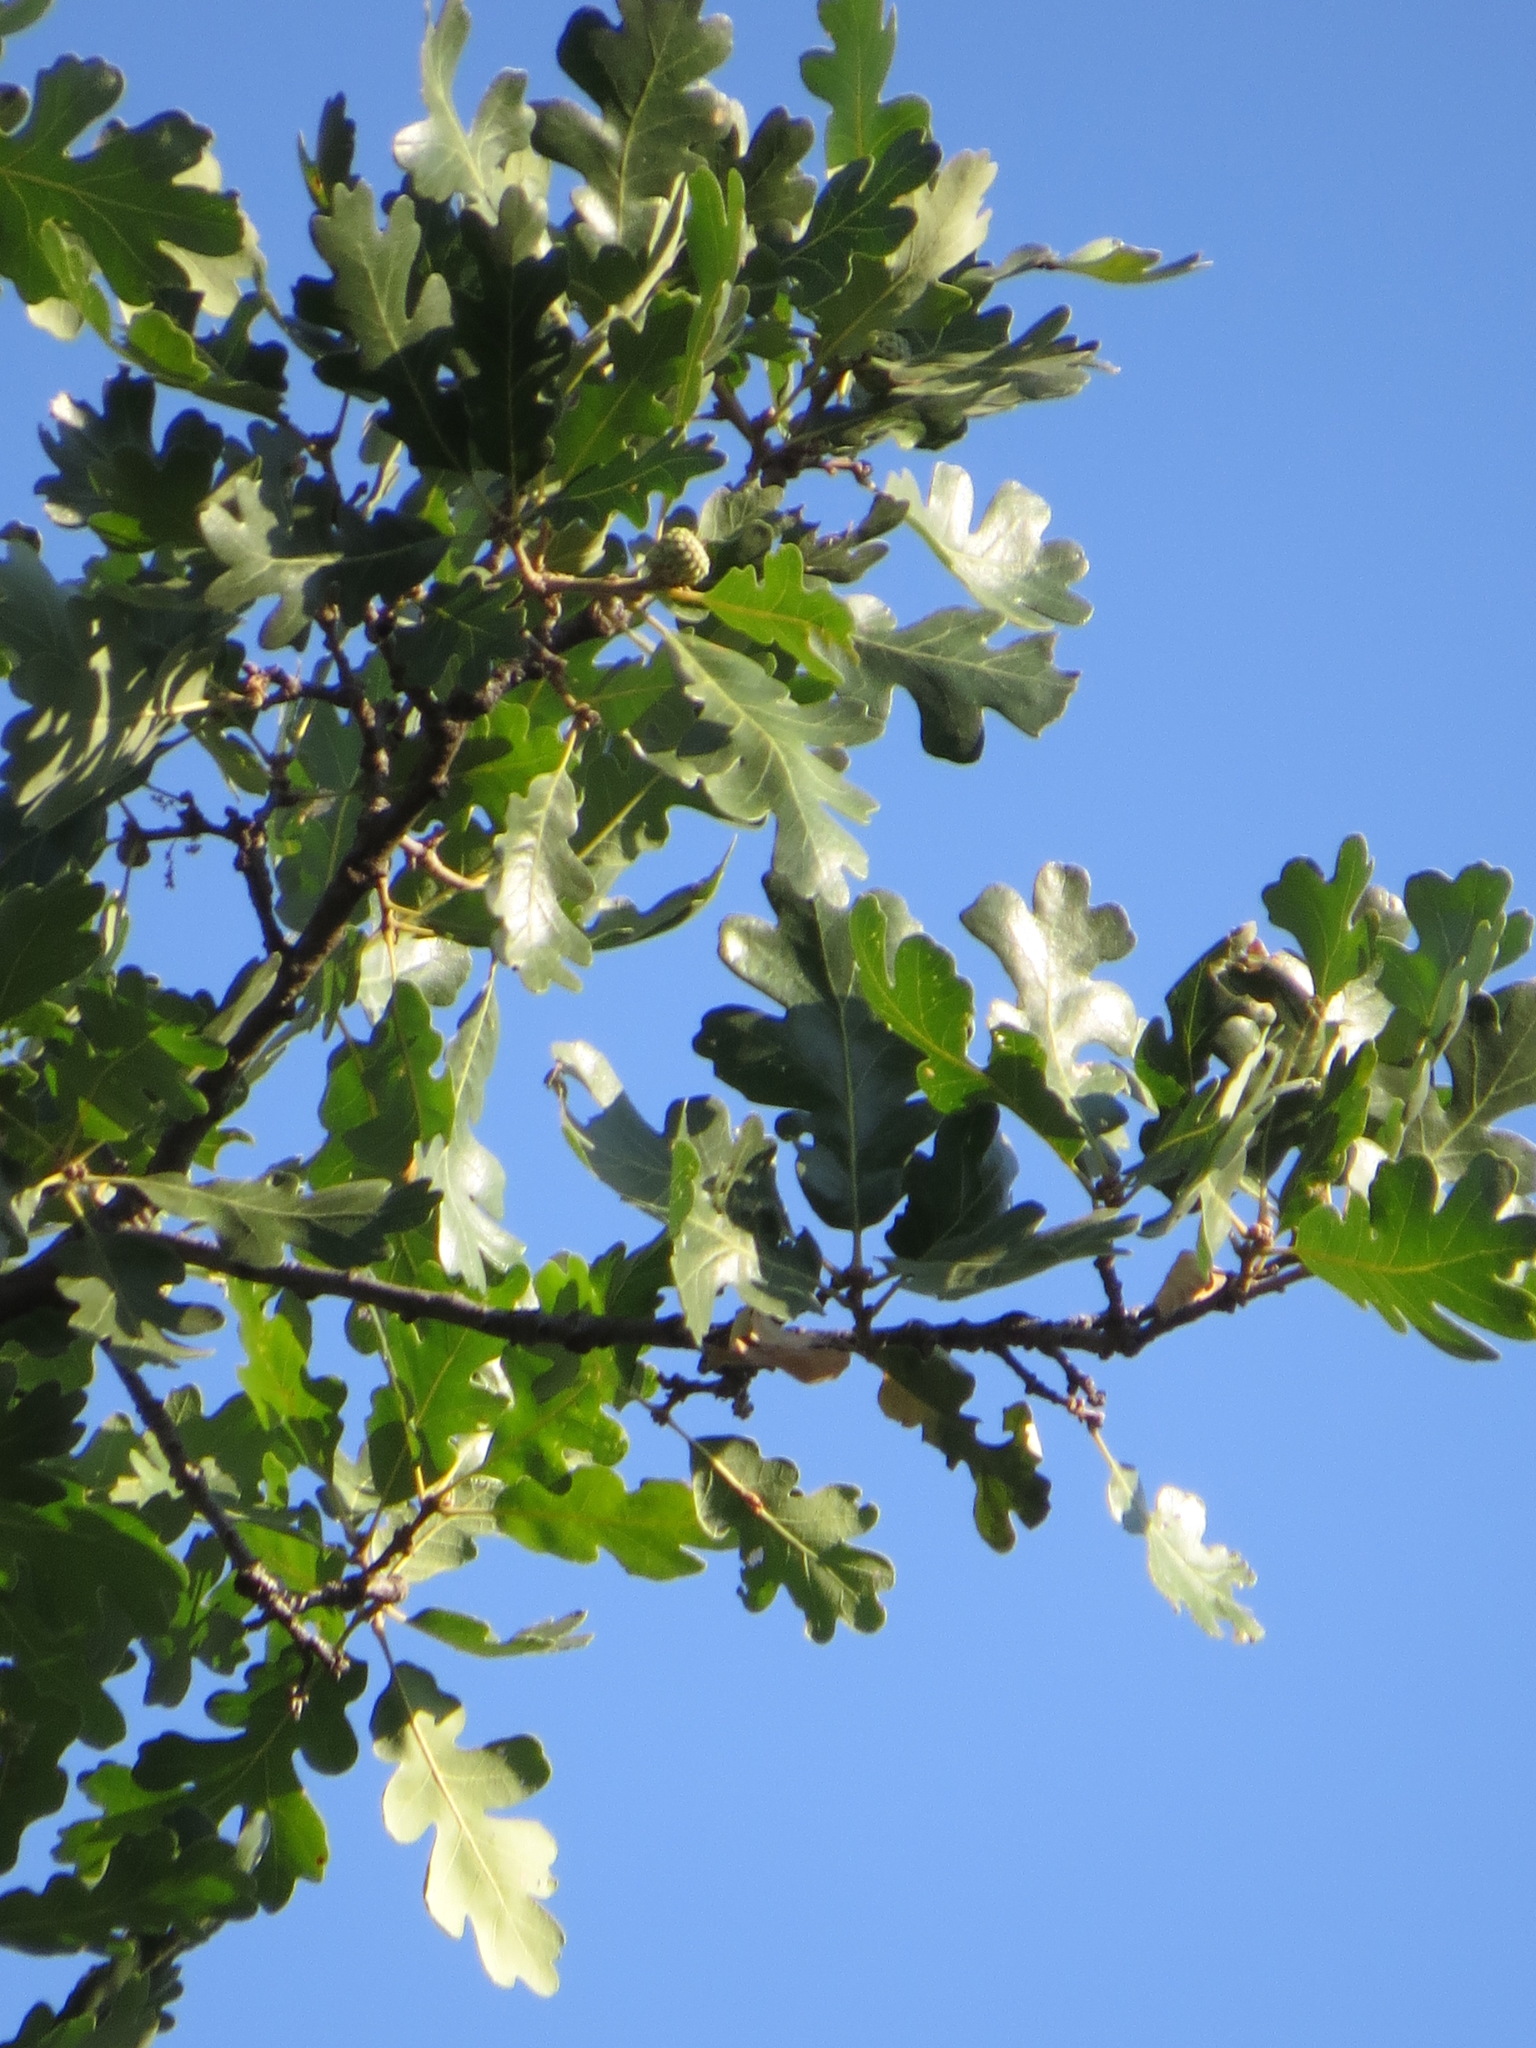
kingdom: Plantae
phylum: Tracheophyta
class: Magnoliopsida
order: Fagales
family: Fagaceae
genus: Quercus
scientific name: Quercus lobata
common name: Valley oak
